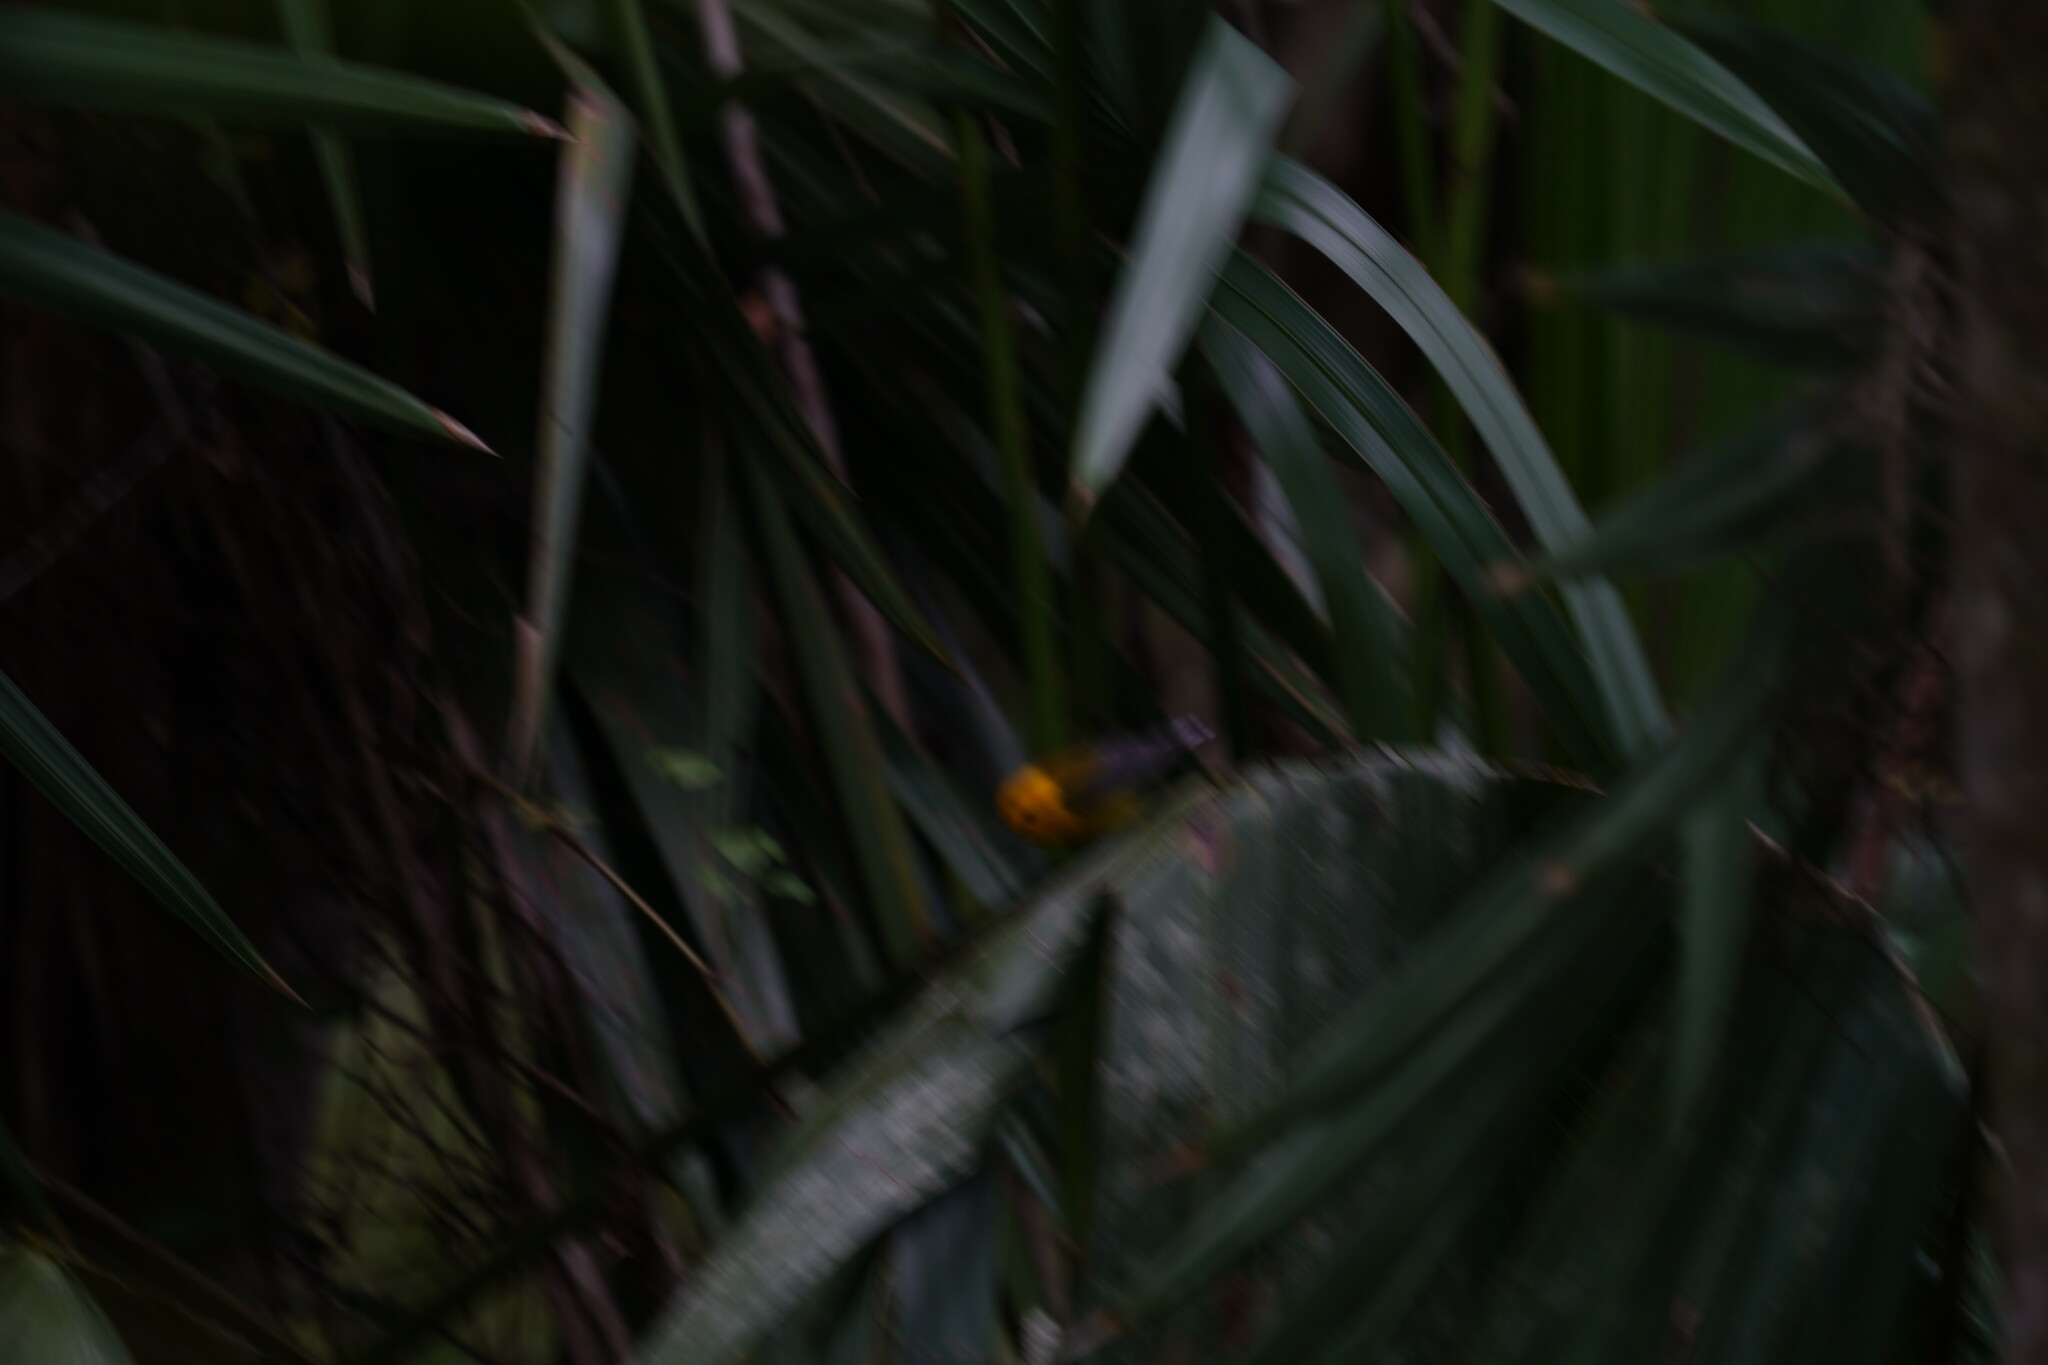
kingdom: Animalia
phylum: Chordata
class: Aves
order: Passeriformes
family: Parulidae
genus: Protonotaria
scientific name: Protonotaria citrea
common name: Prothonotary warbler
